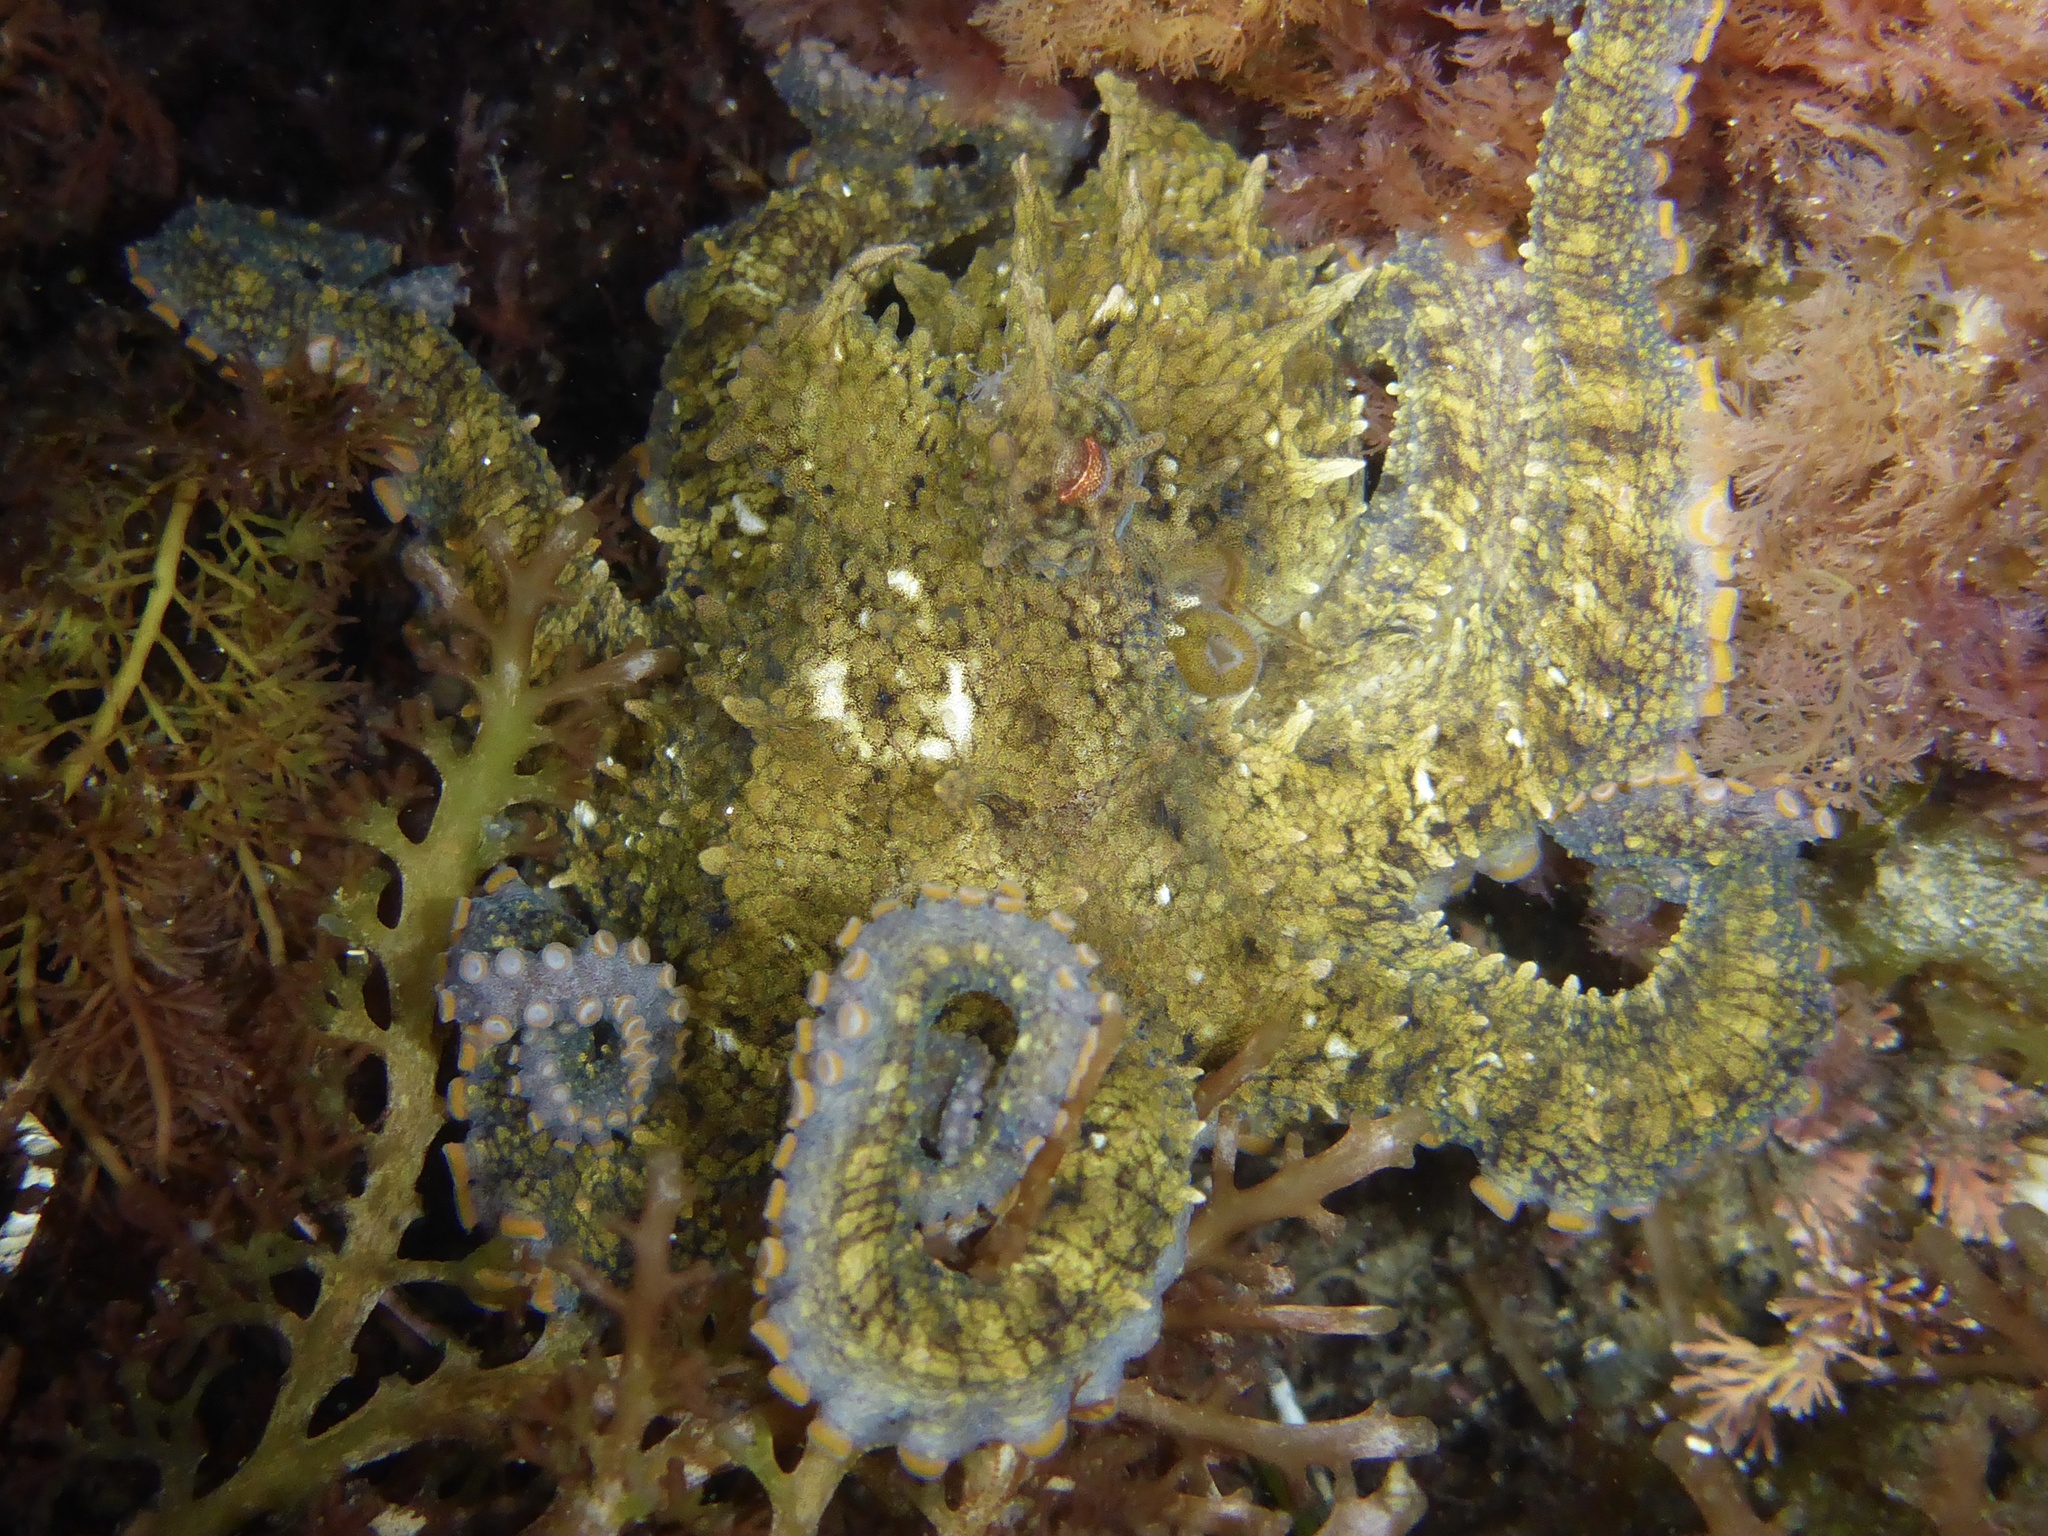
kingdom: Animalia
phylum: Mollusca
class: Cephalopoda
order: Octopoda
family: Octopodidae
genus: Octopus
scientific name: Octopus bimaculoides
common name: California two-spot octopus
